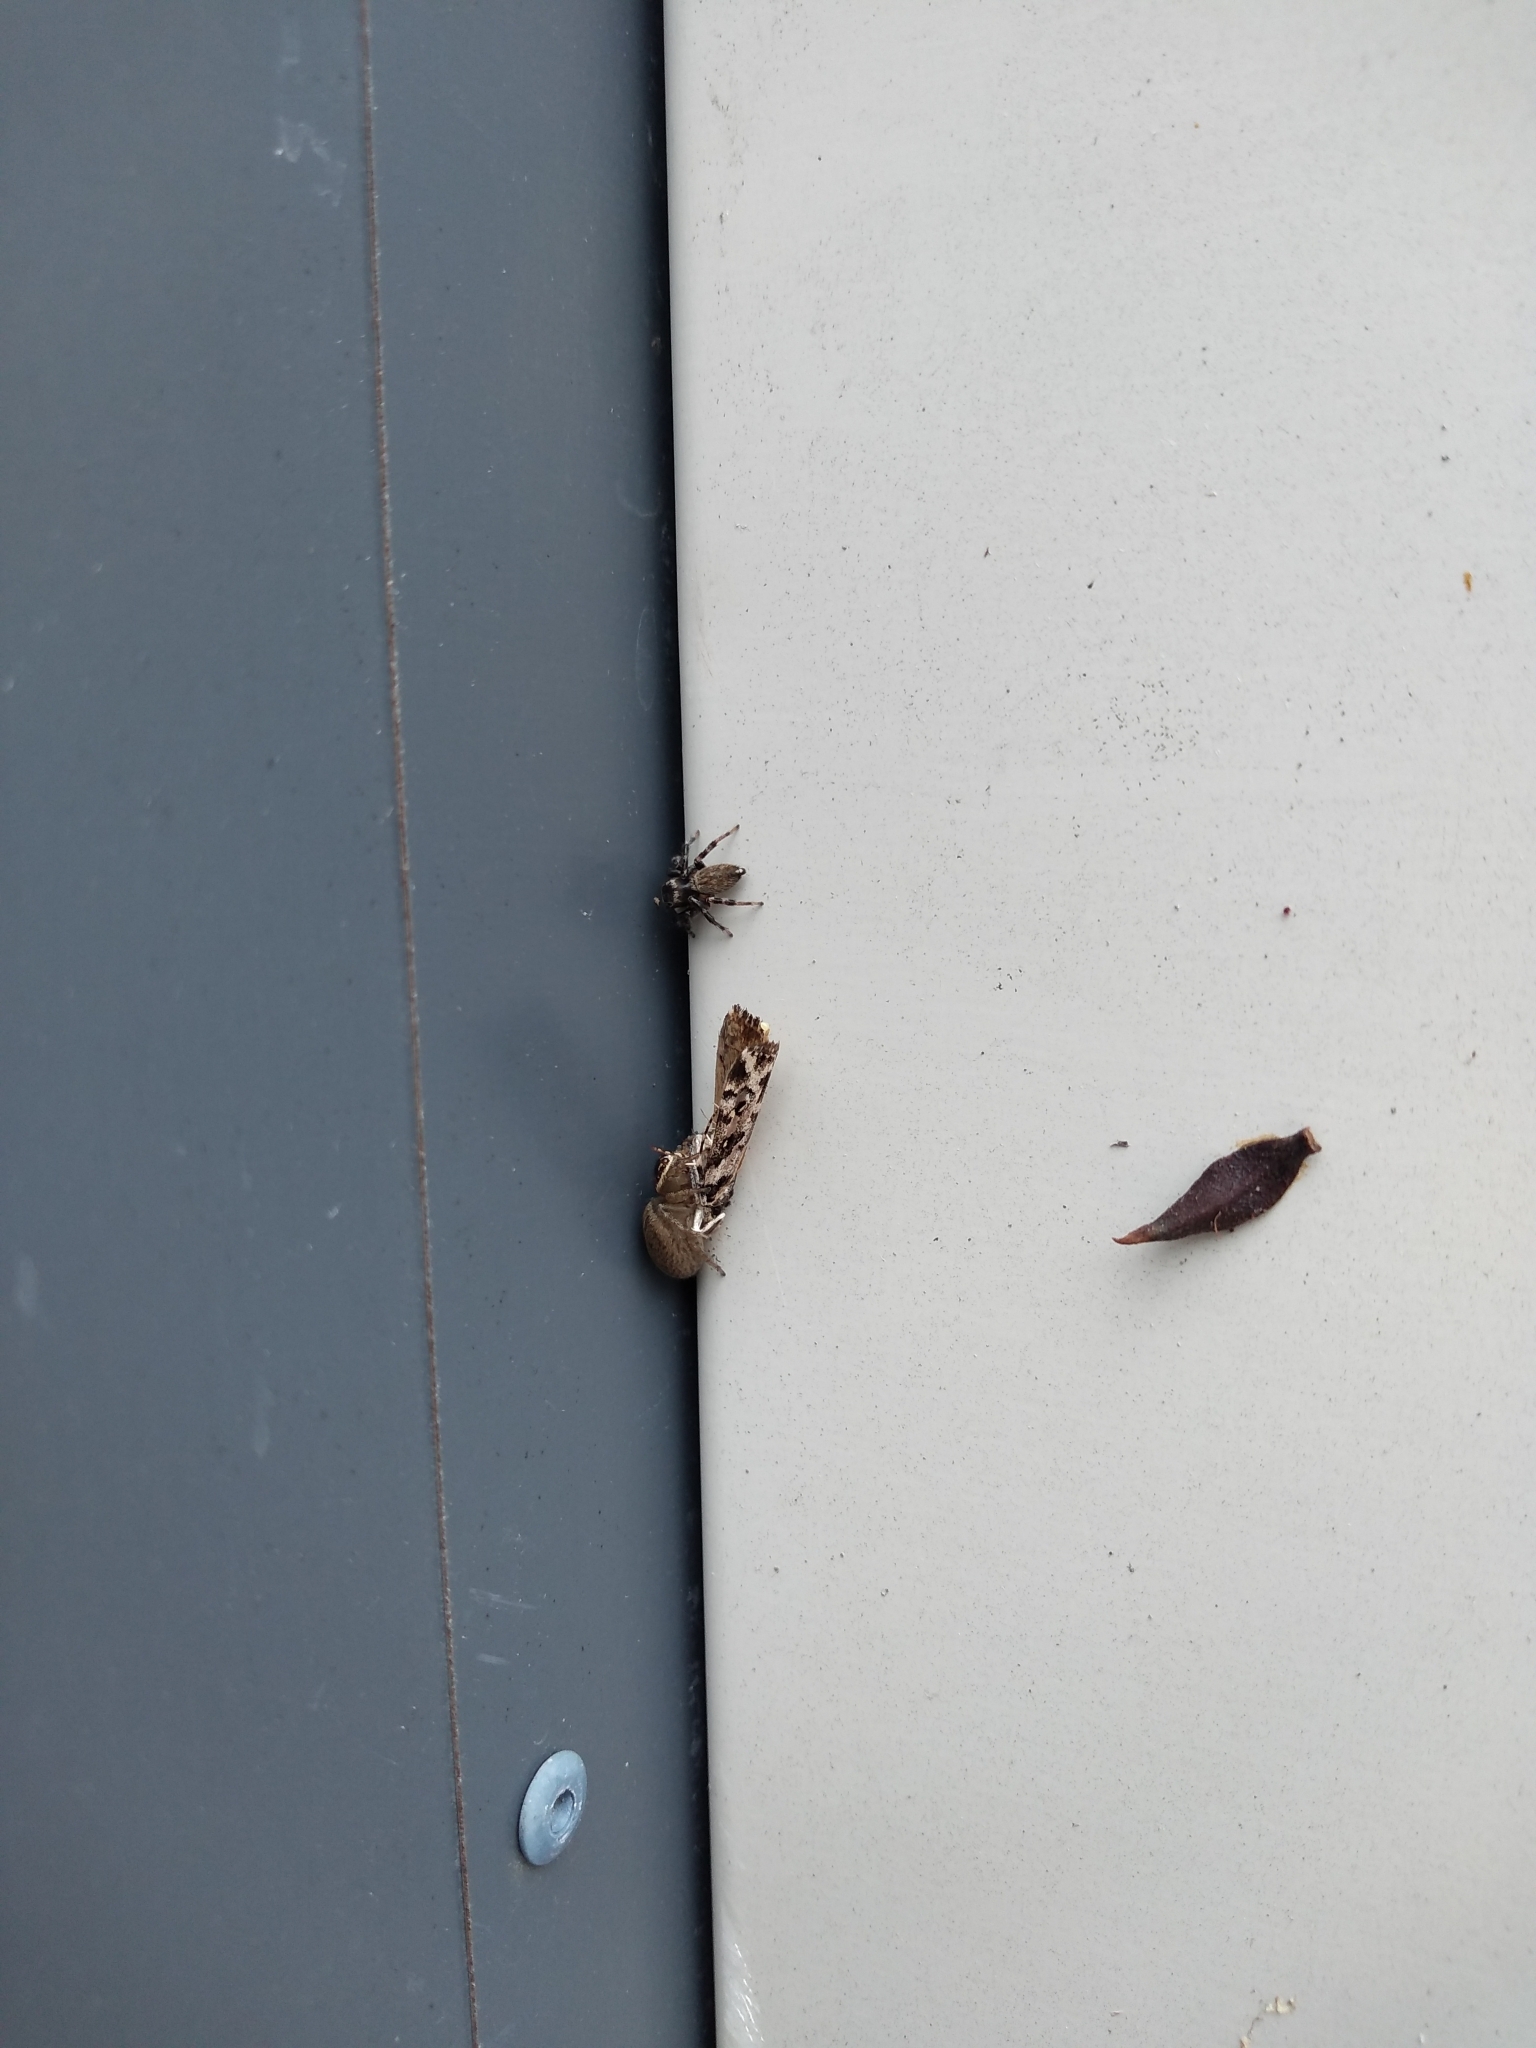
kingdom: Animalia
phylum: Arthropoda
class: Arachnida
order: Araneae
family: Salticidae
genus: Maratus
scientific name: Maratus griseus
